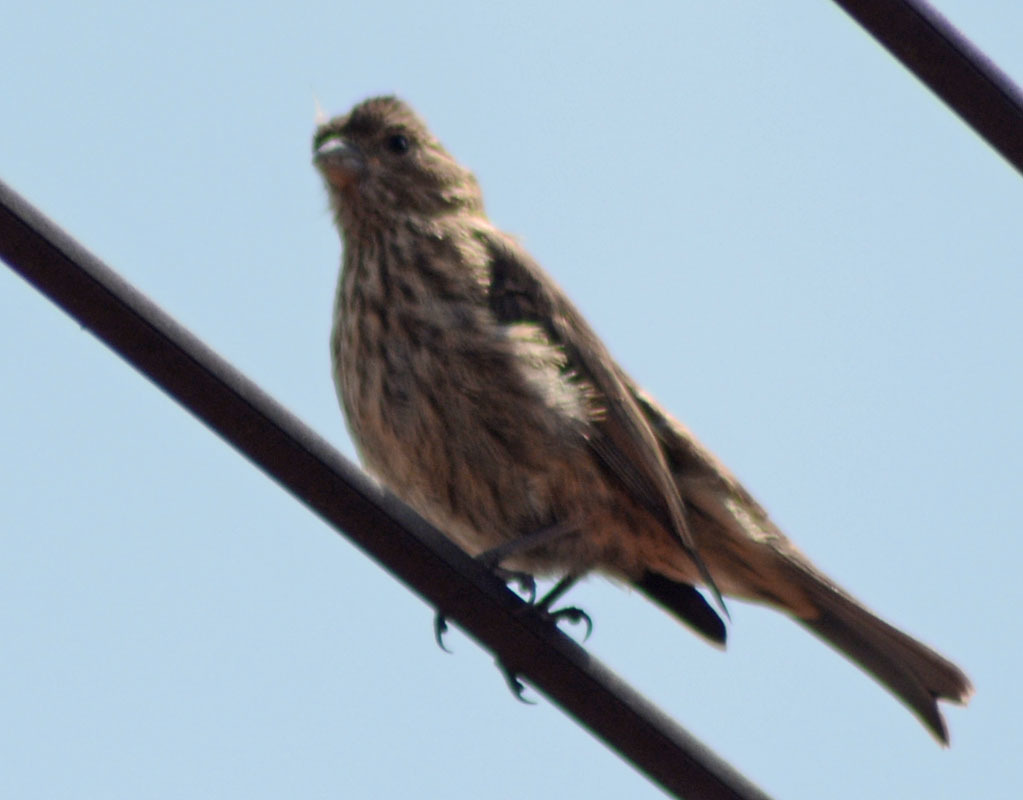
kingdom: Animalia
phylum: Chordata
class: Aves
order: Passeriformes
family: Fringillidae
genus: Haemorhous
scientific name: Haemorhous mexicanus
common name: House finch
